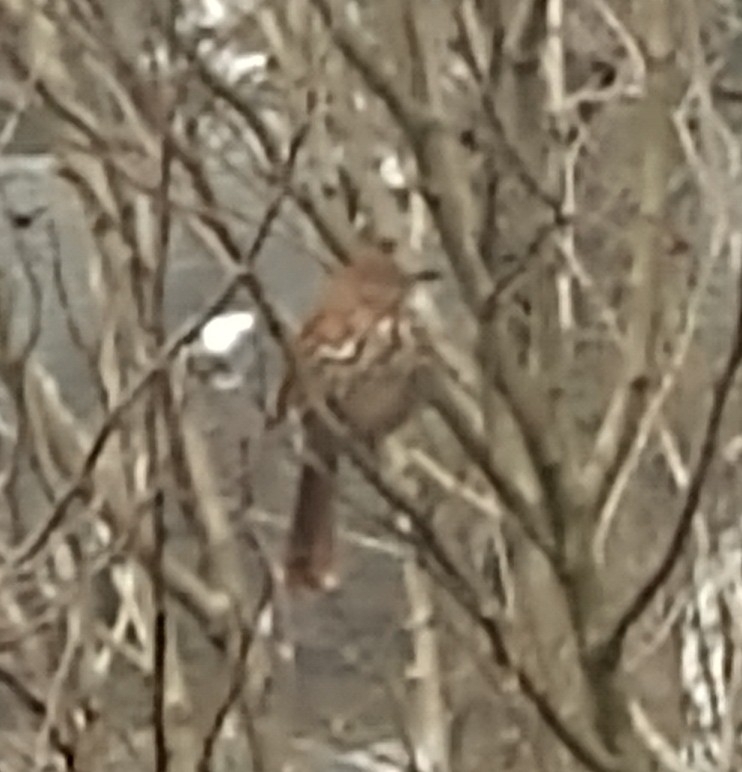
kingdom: Animalia
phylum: Chordata
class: Aves
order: Passeriformes
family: Mimidae
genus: Toxostoma
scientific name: Toxostoma rufum
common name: Brown thrasher
